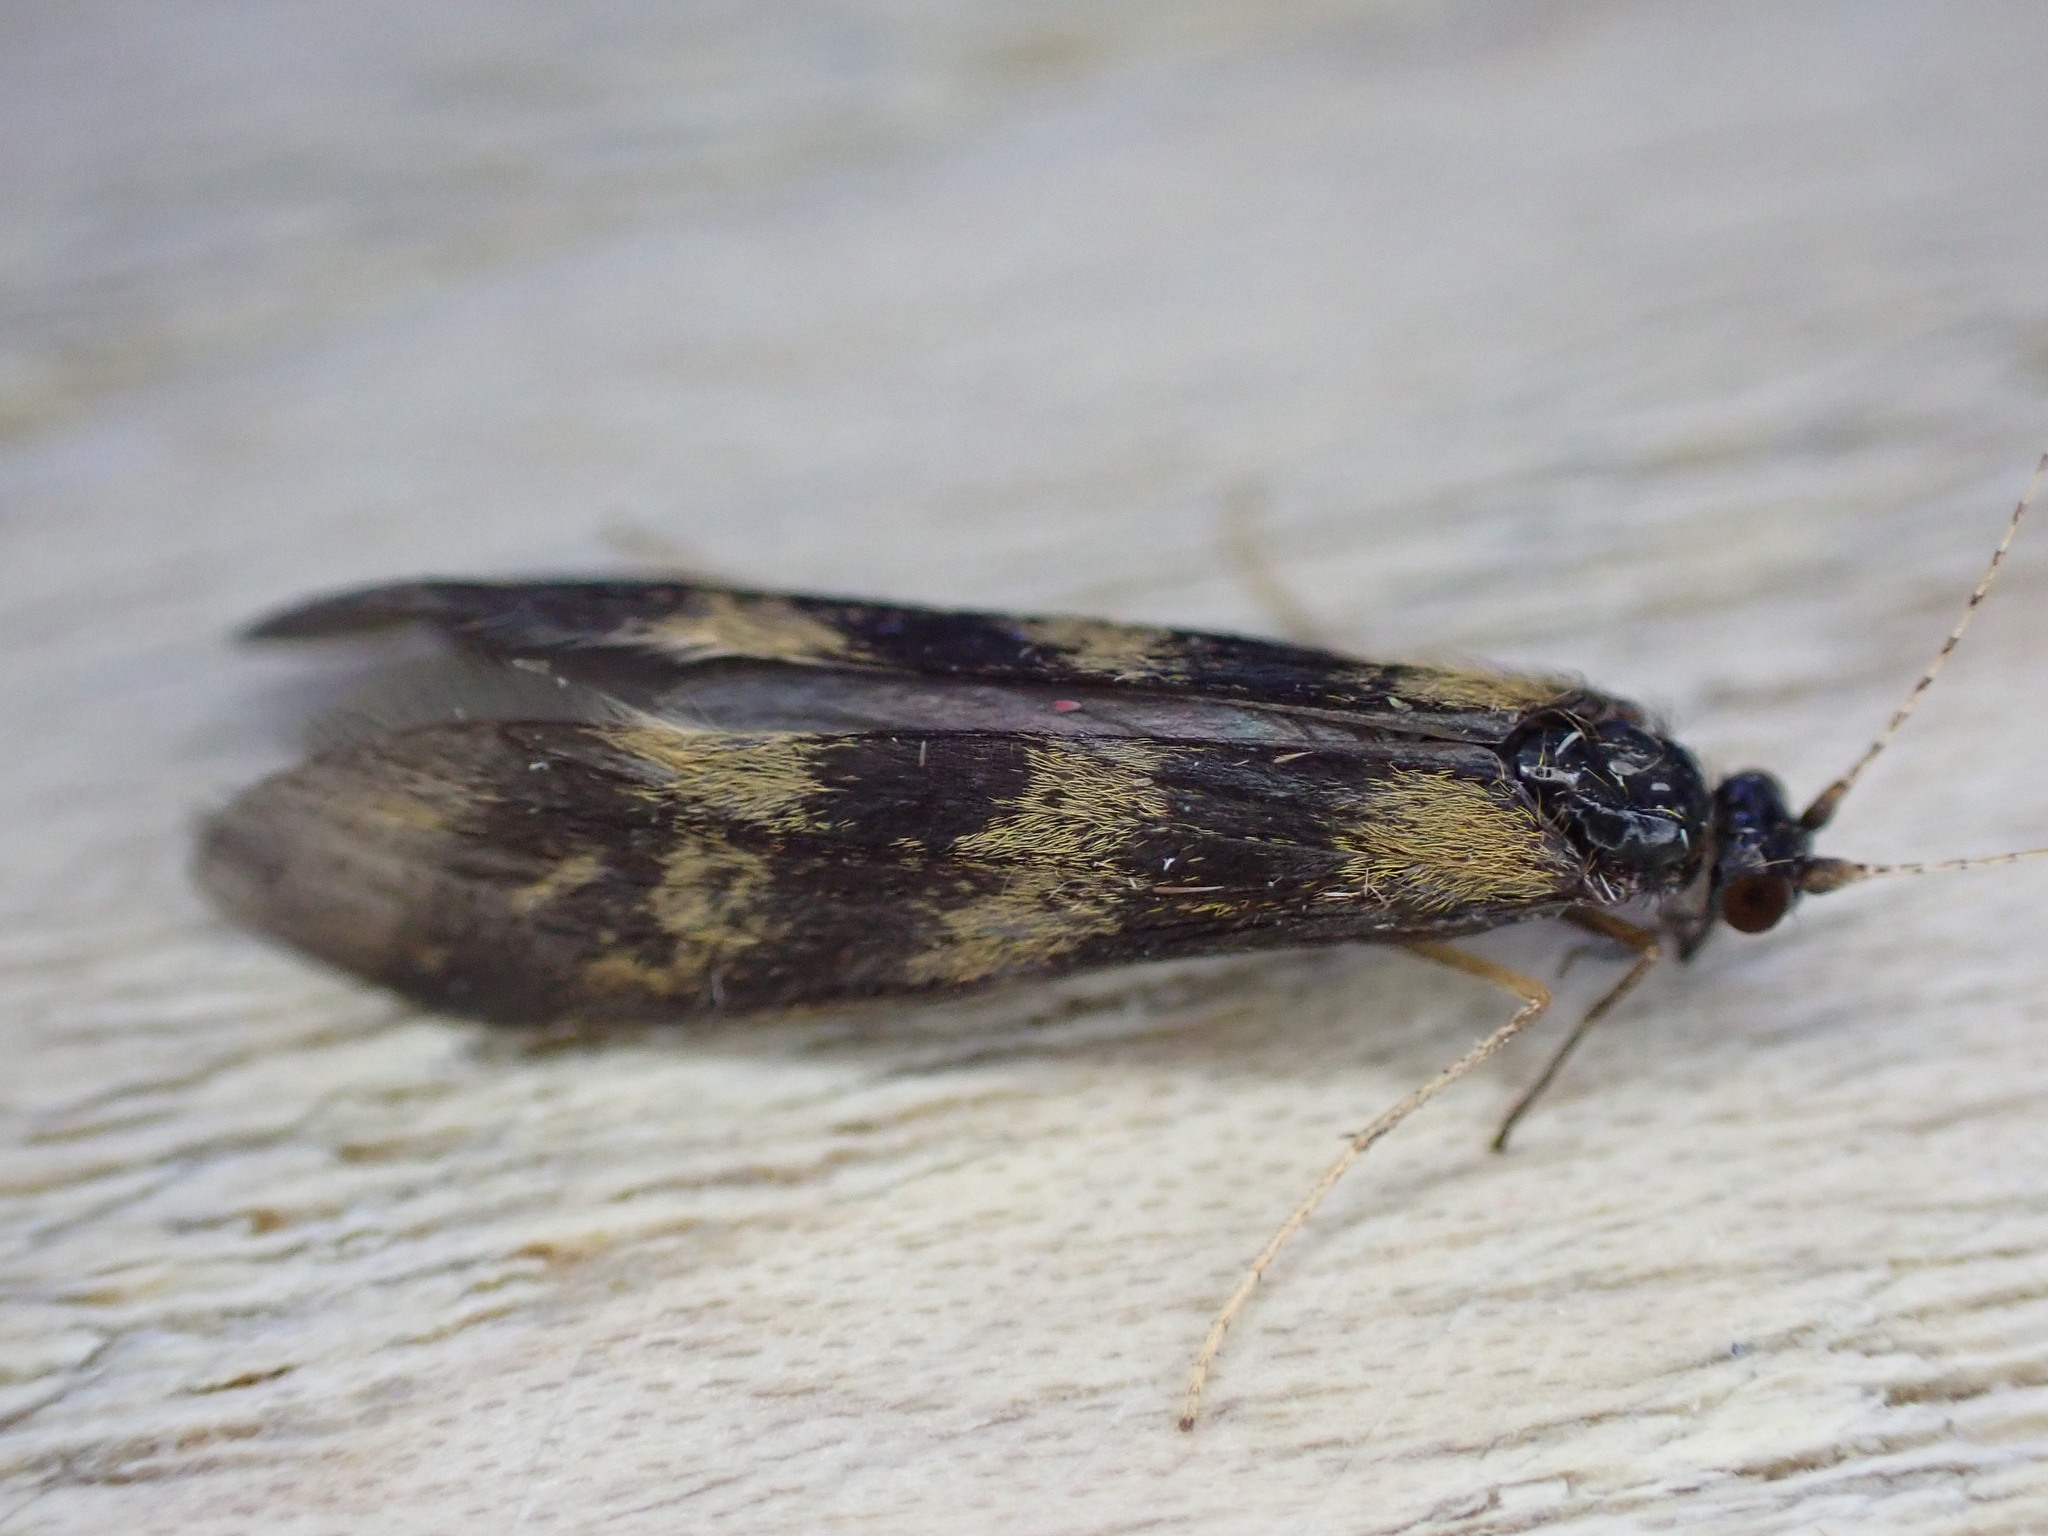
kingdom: Animalia
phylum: Arthropoda
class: Insecta
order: Trichoptera
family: Leptoceridae
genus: Mystacides
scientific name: Mystacides longicornis
